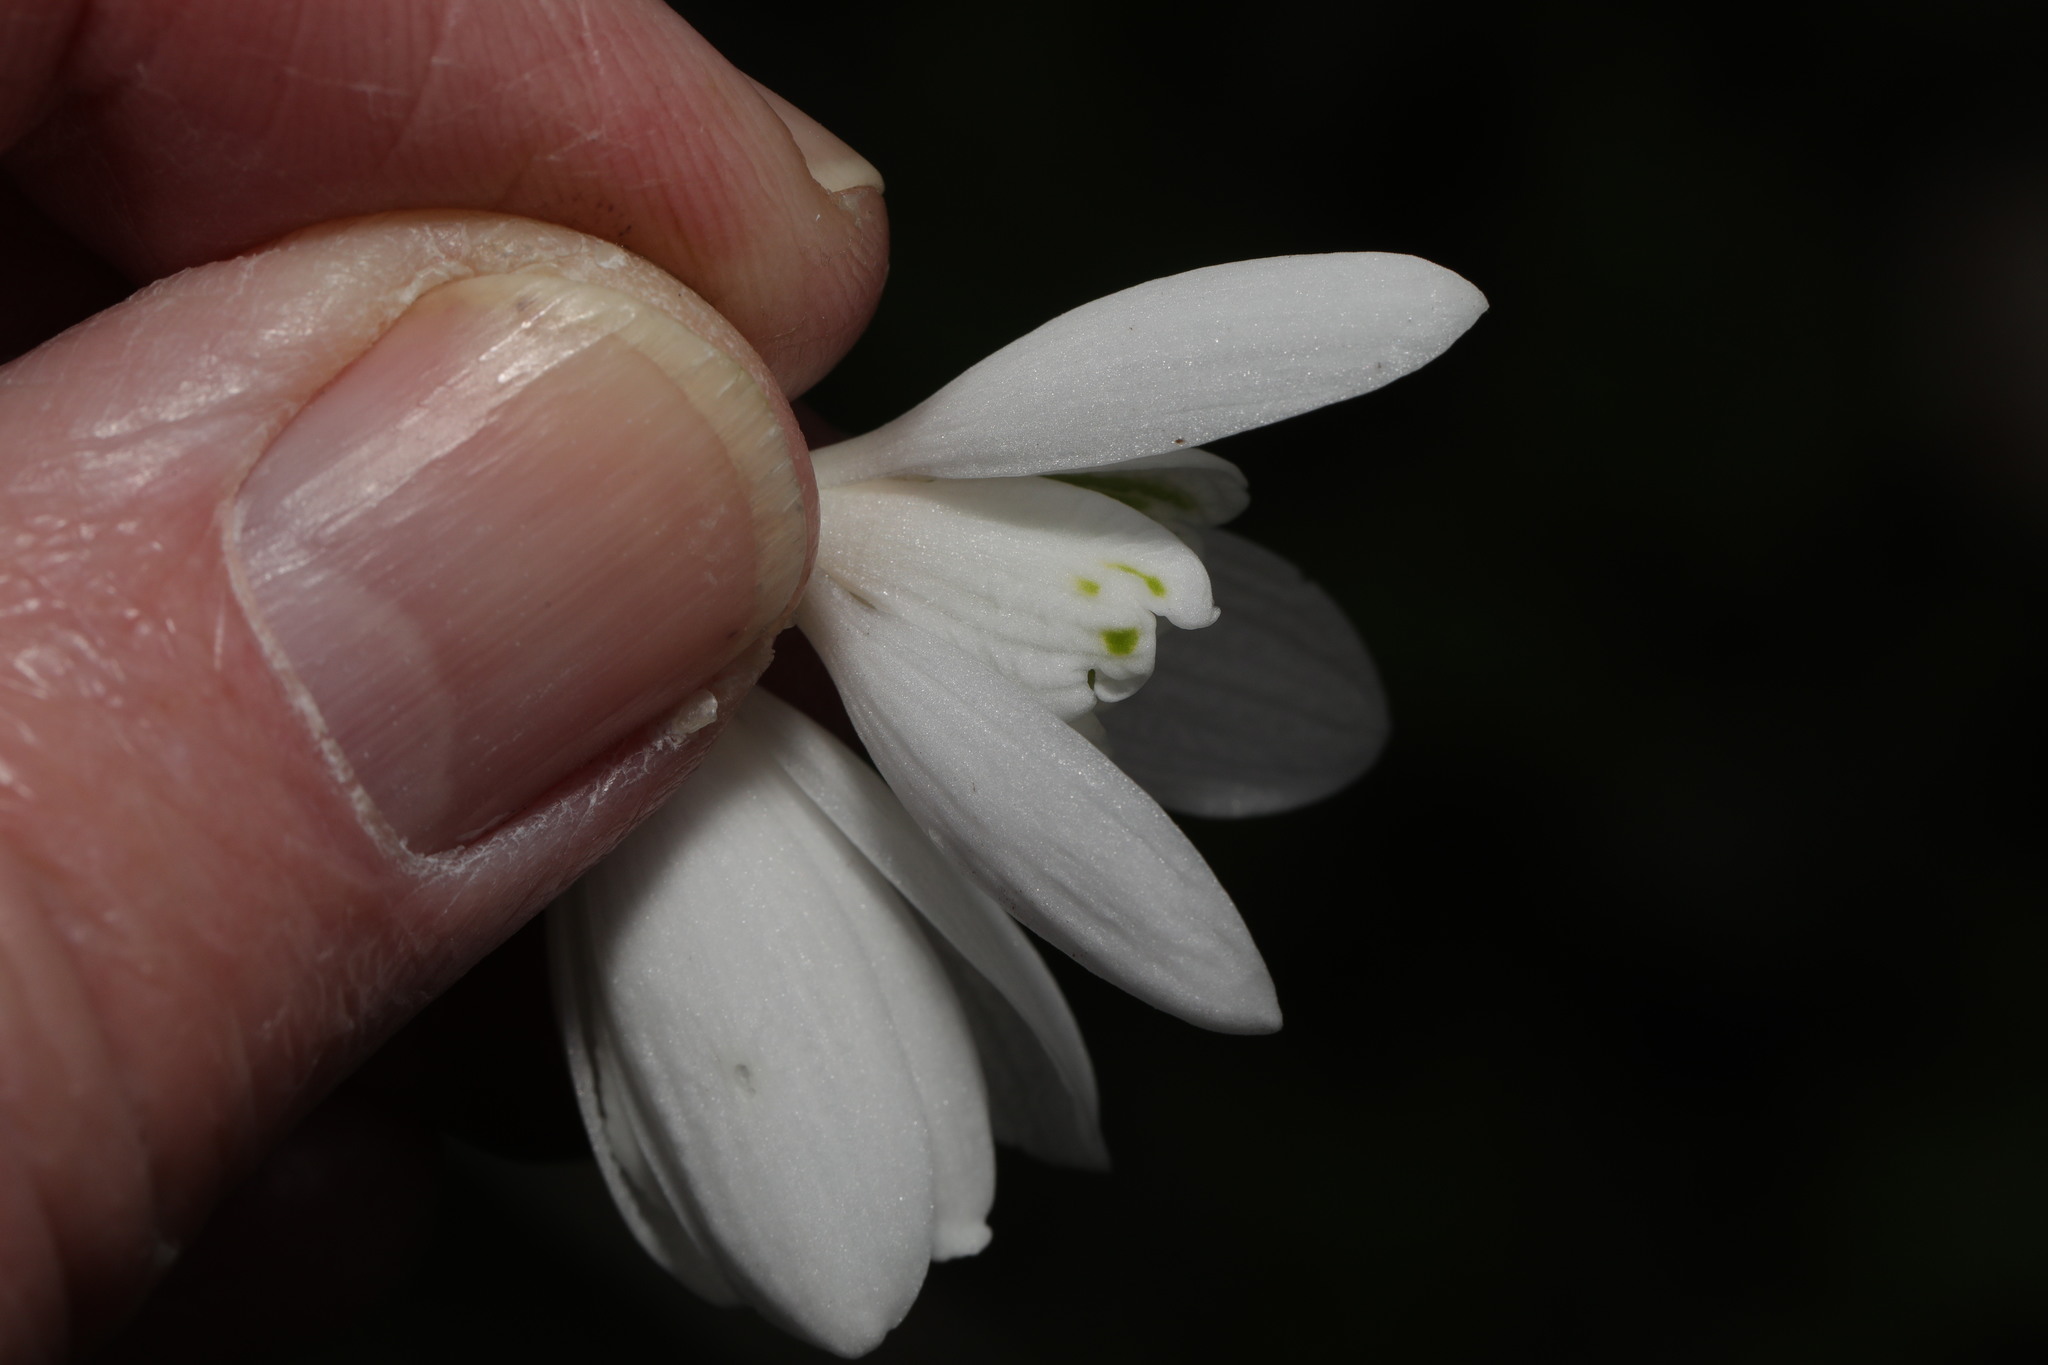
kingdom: Plantae
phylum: Tracheophyta
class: Liliopsida
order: Asparagales
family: Amaryllidaceae
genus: Galanthus
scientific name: Galanthus nivalis
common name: Snowdrop
